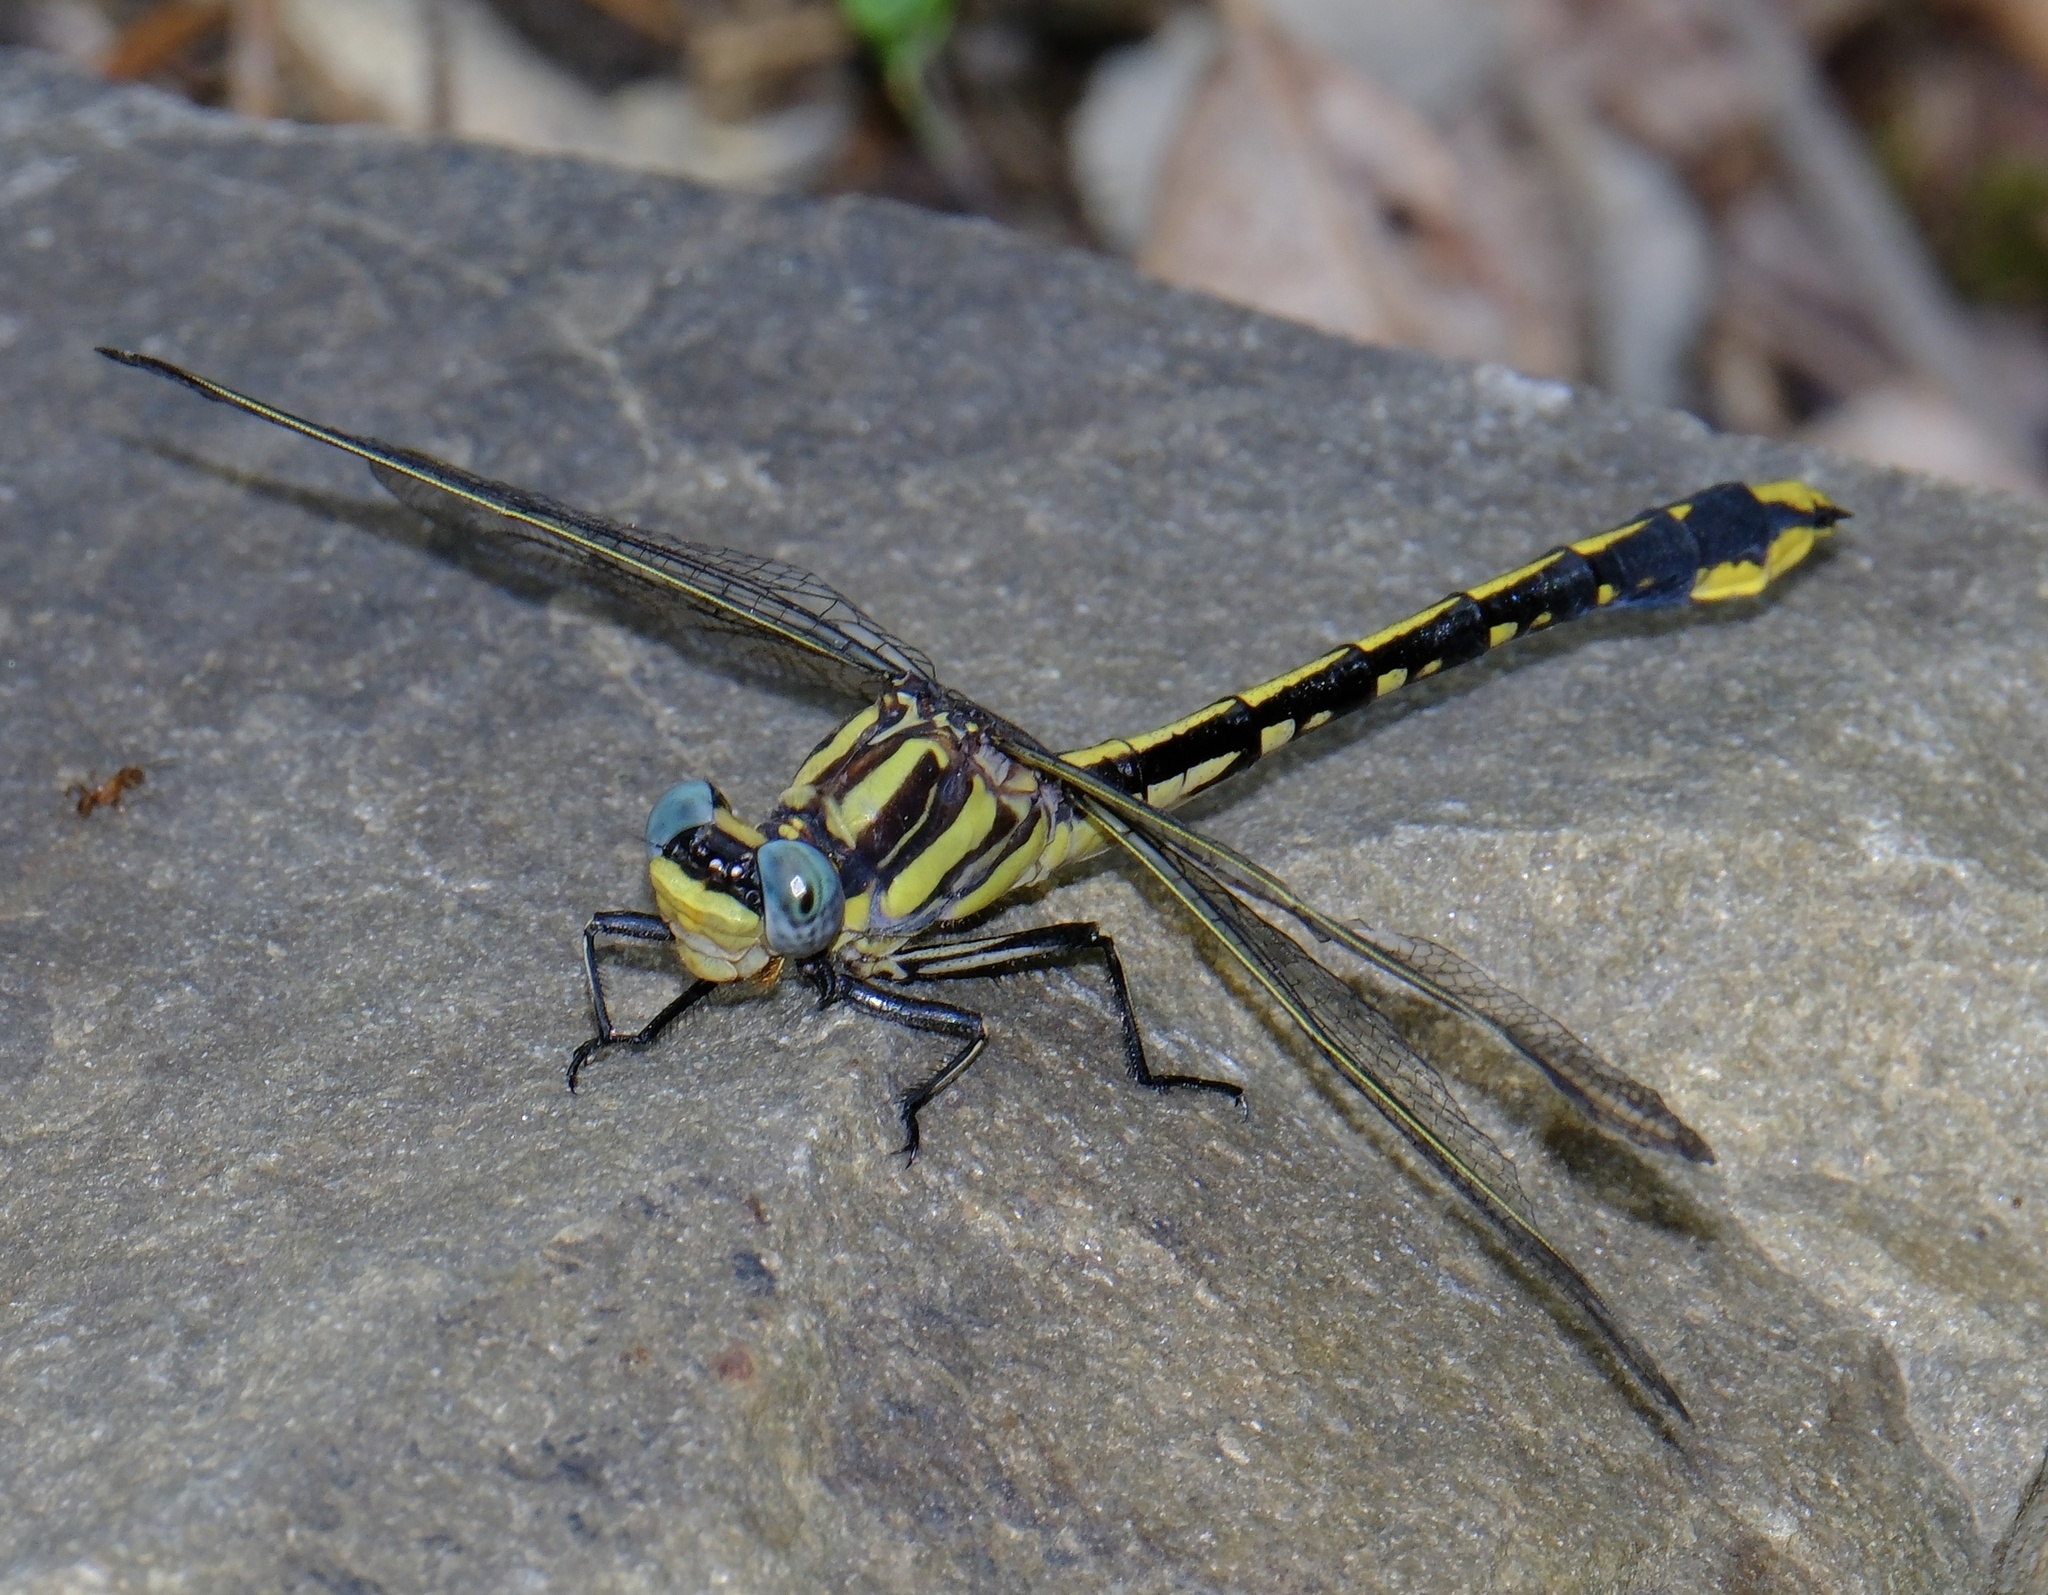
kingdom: Animalia
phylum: Arthropoda
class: Insecta
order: Odonata
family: Gomphidae
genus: Phanogomphus
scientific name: Phanogomphus graslinellus
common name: Pronghorn clubtail
